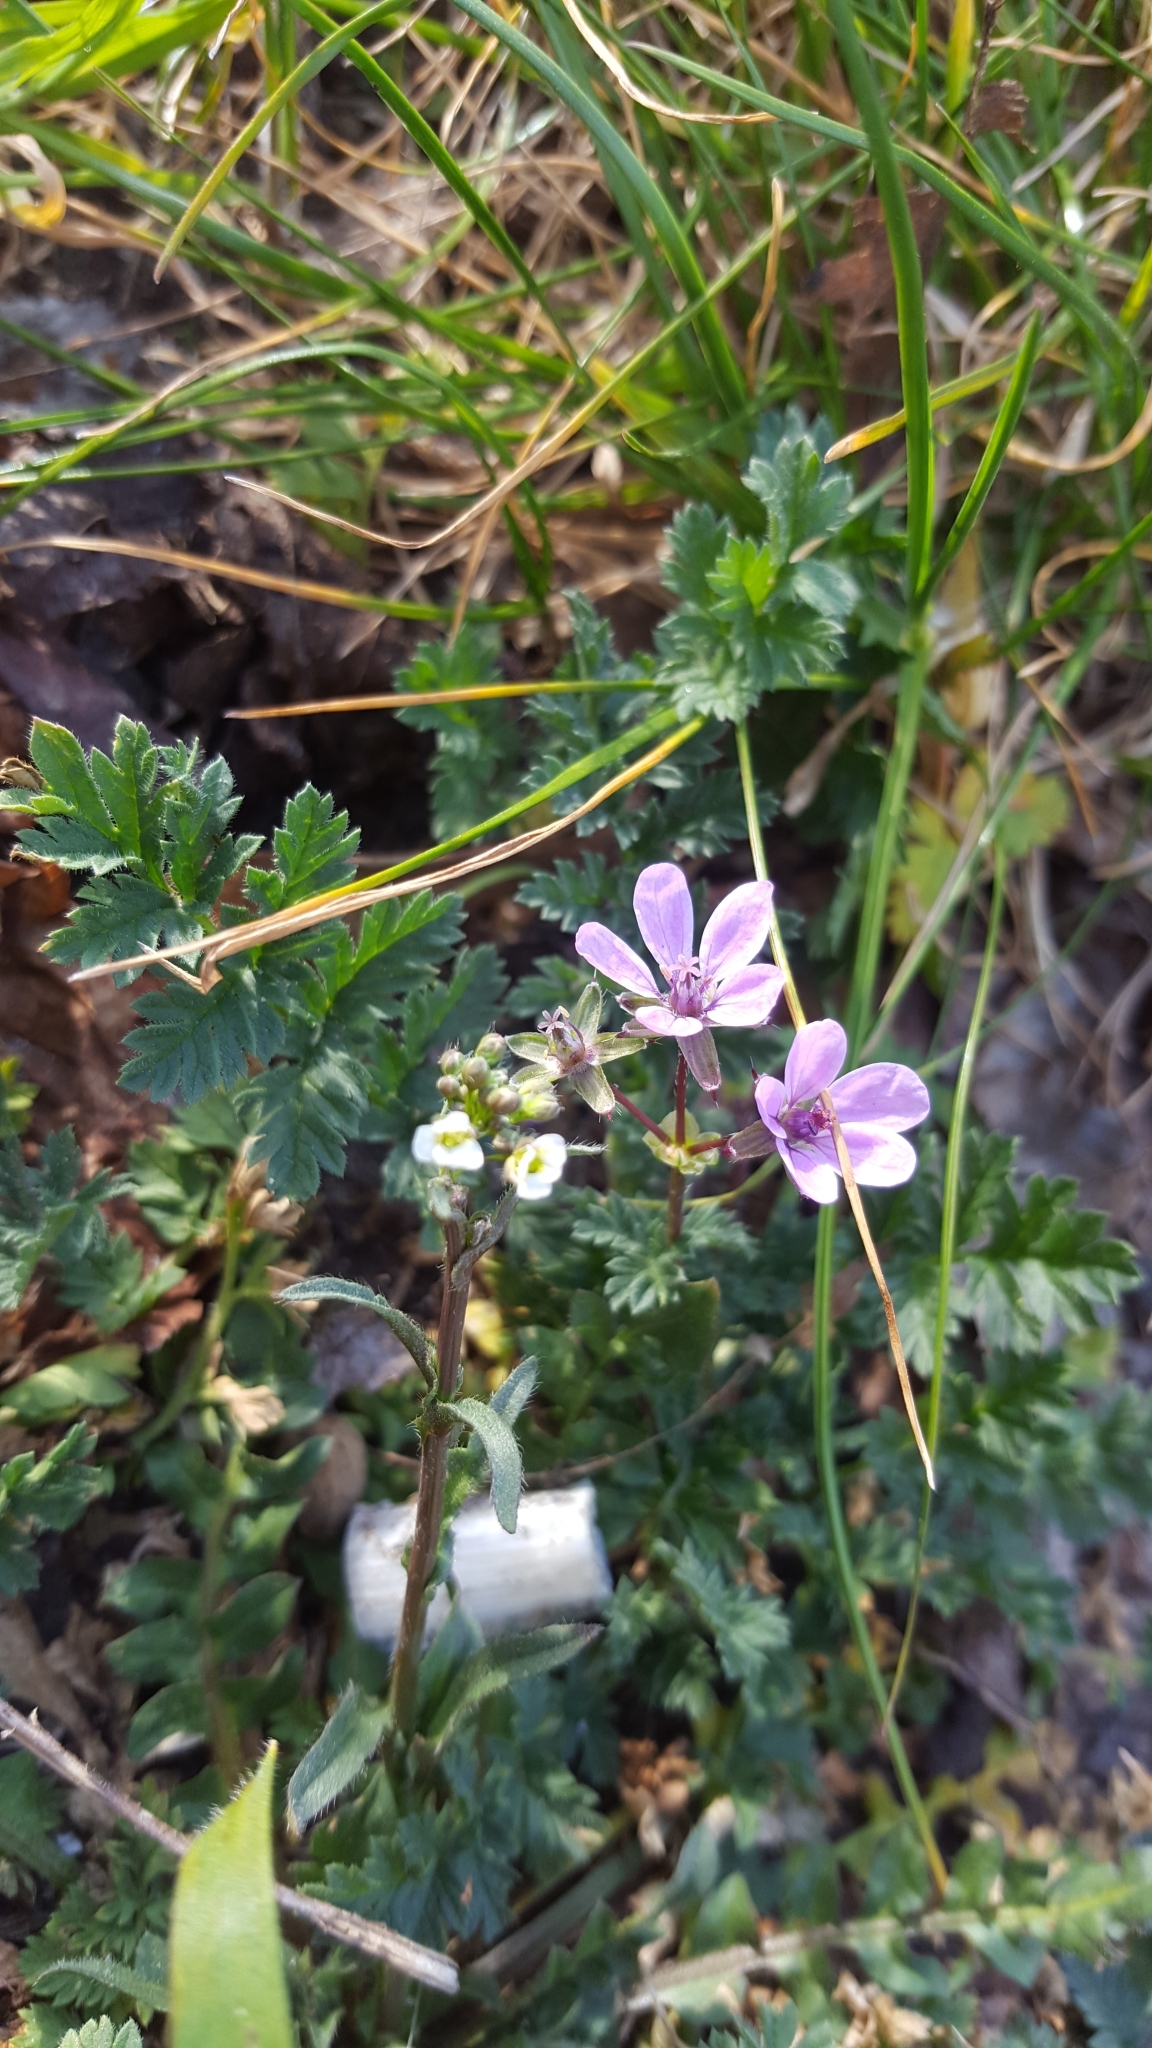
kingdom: Plantae
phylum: Tracheophyta
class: Magnoliopsida
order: Geraniales
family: Geraniaceae
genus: Erodium
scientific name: Erodium cicutarium
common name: Common stork's-bill
